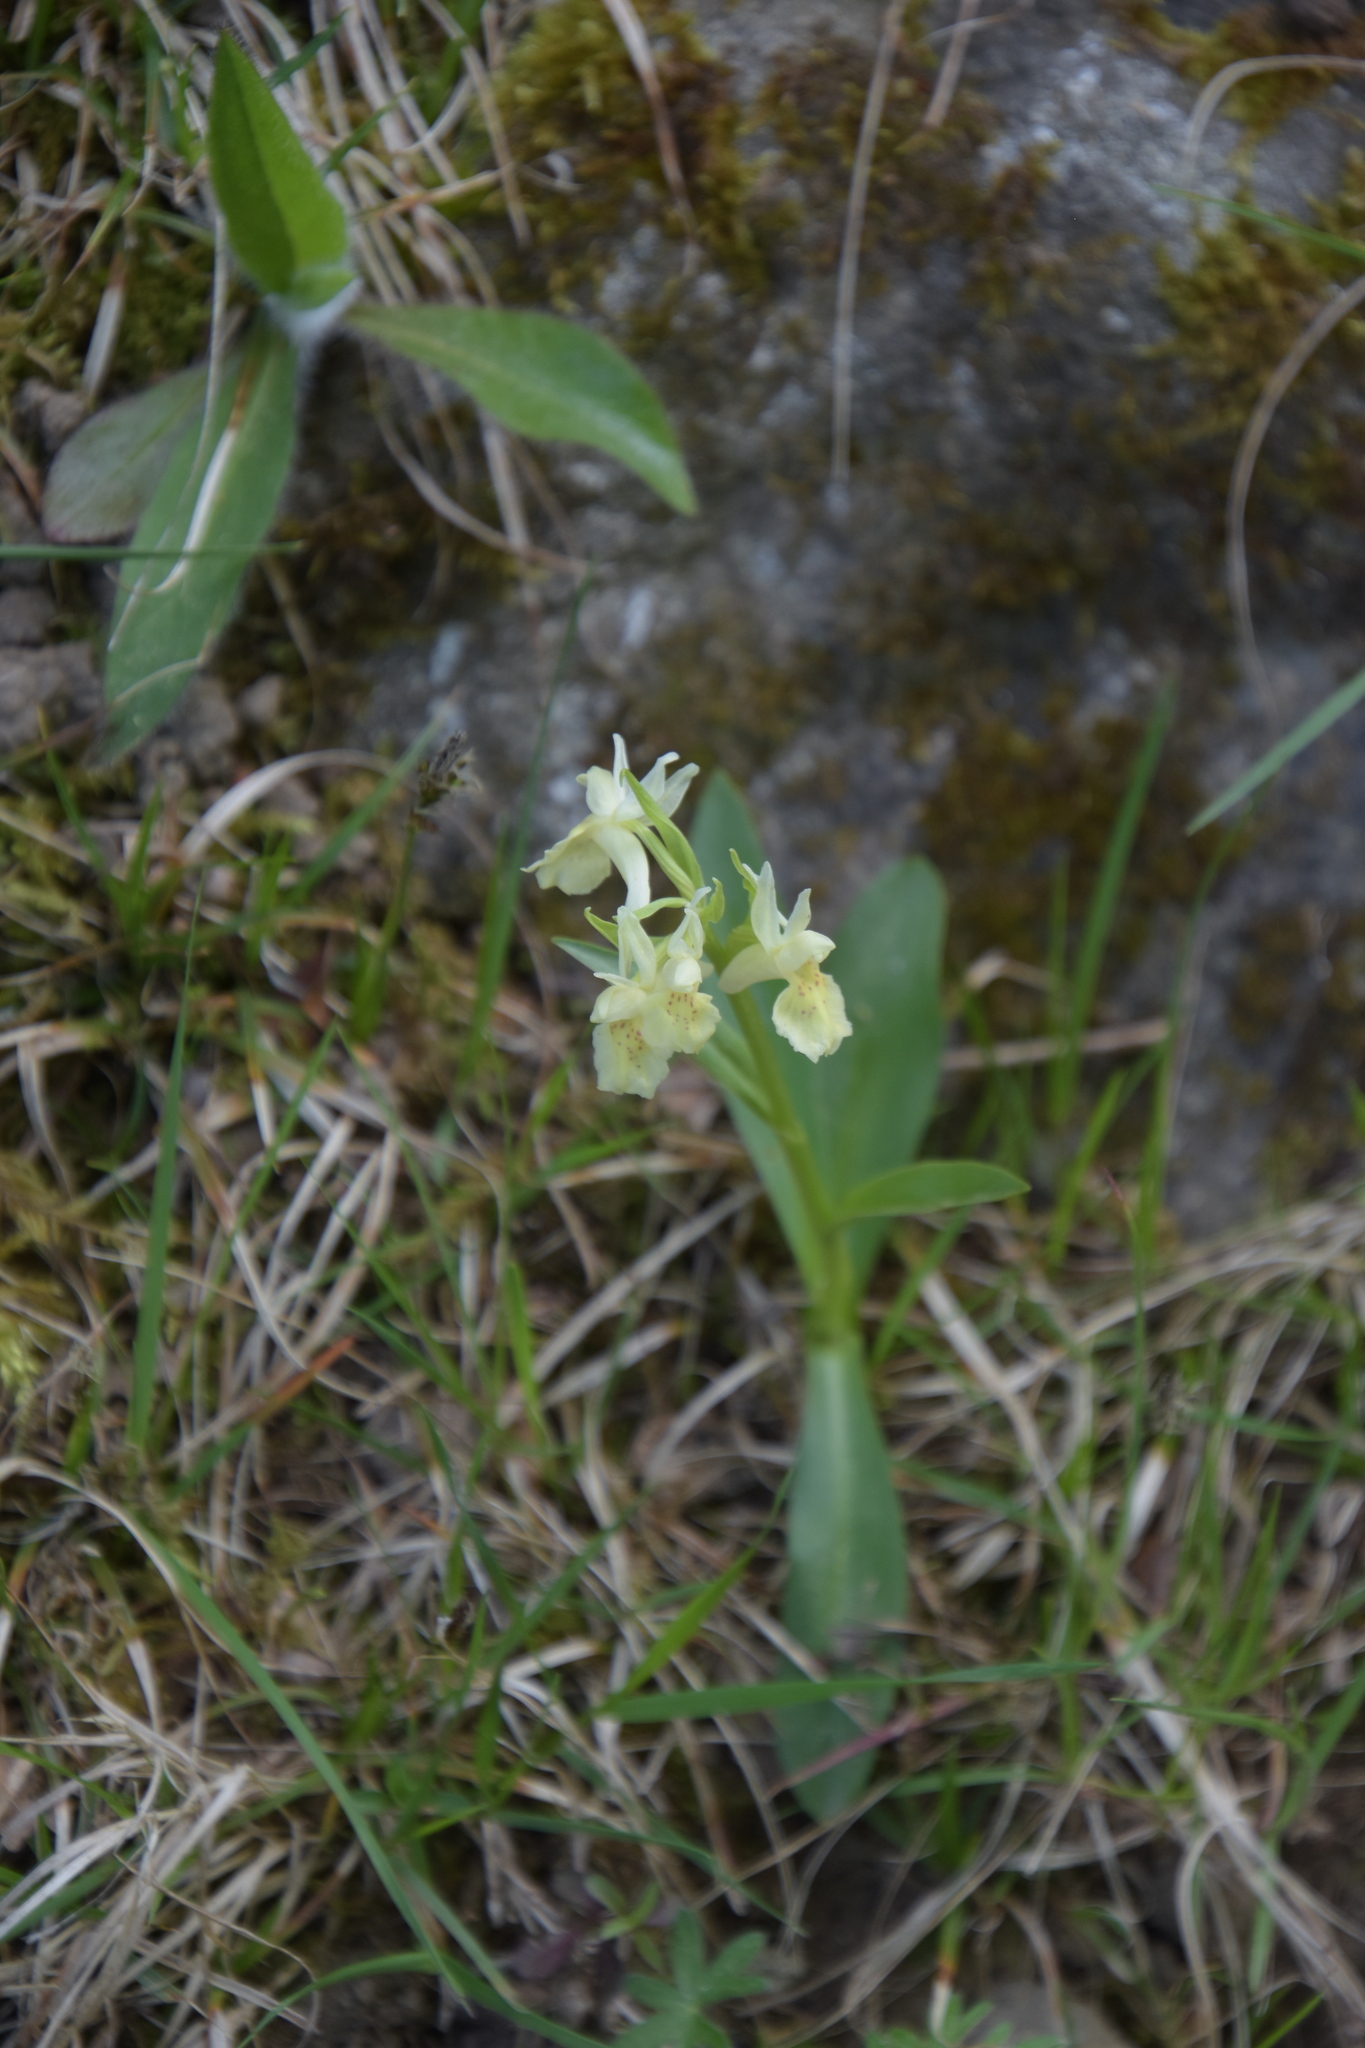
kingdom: Plantae
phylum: Tracheophyta
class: Liliopsida
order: Asparagales
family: Orchidaceae
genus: Dactylorhiza
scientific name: Dactylorhiza sambucina
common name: Elder-flowered orchid
